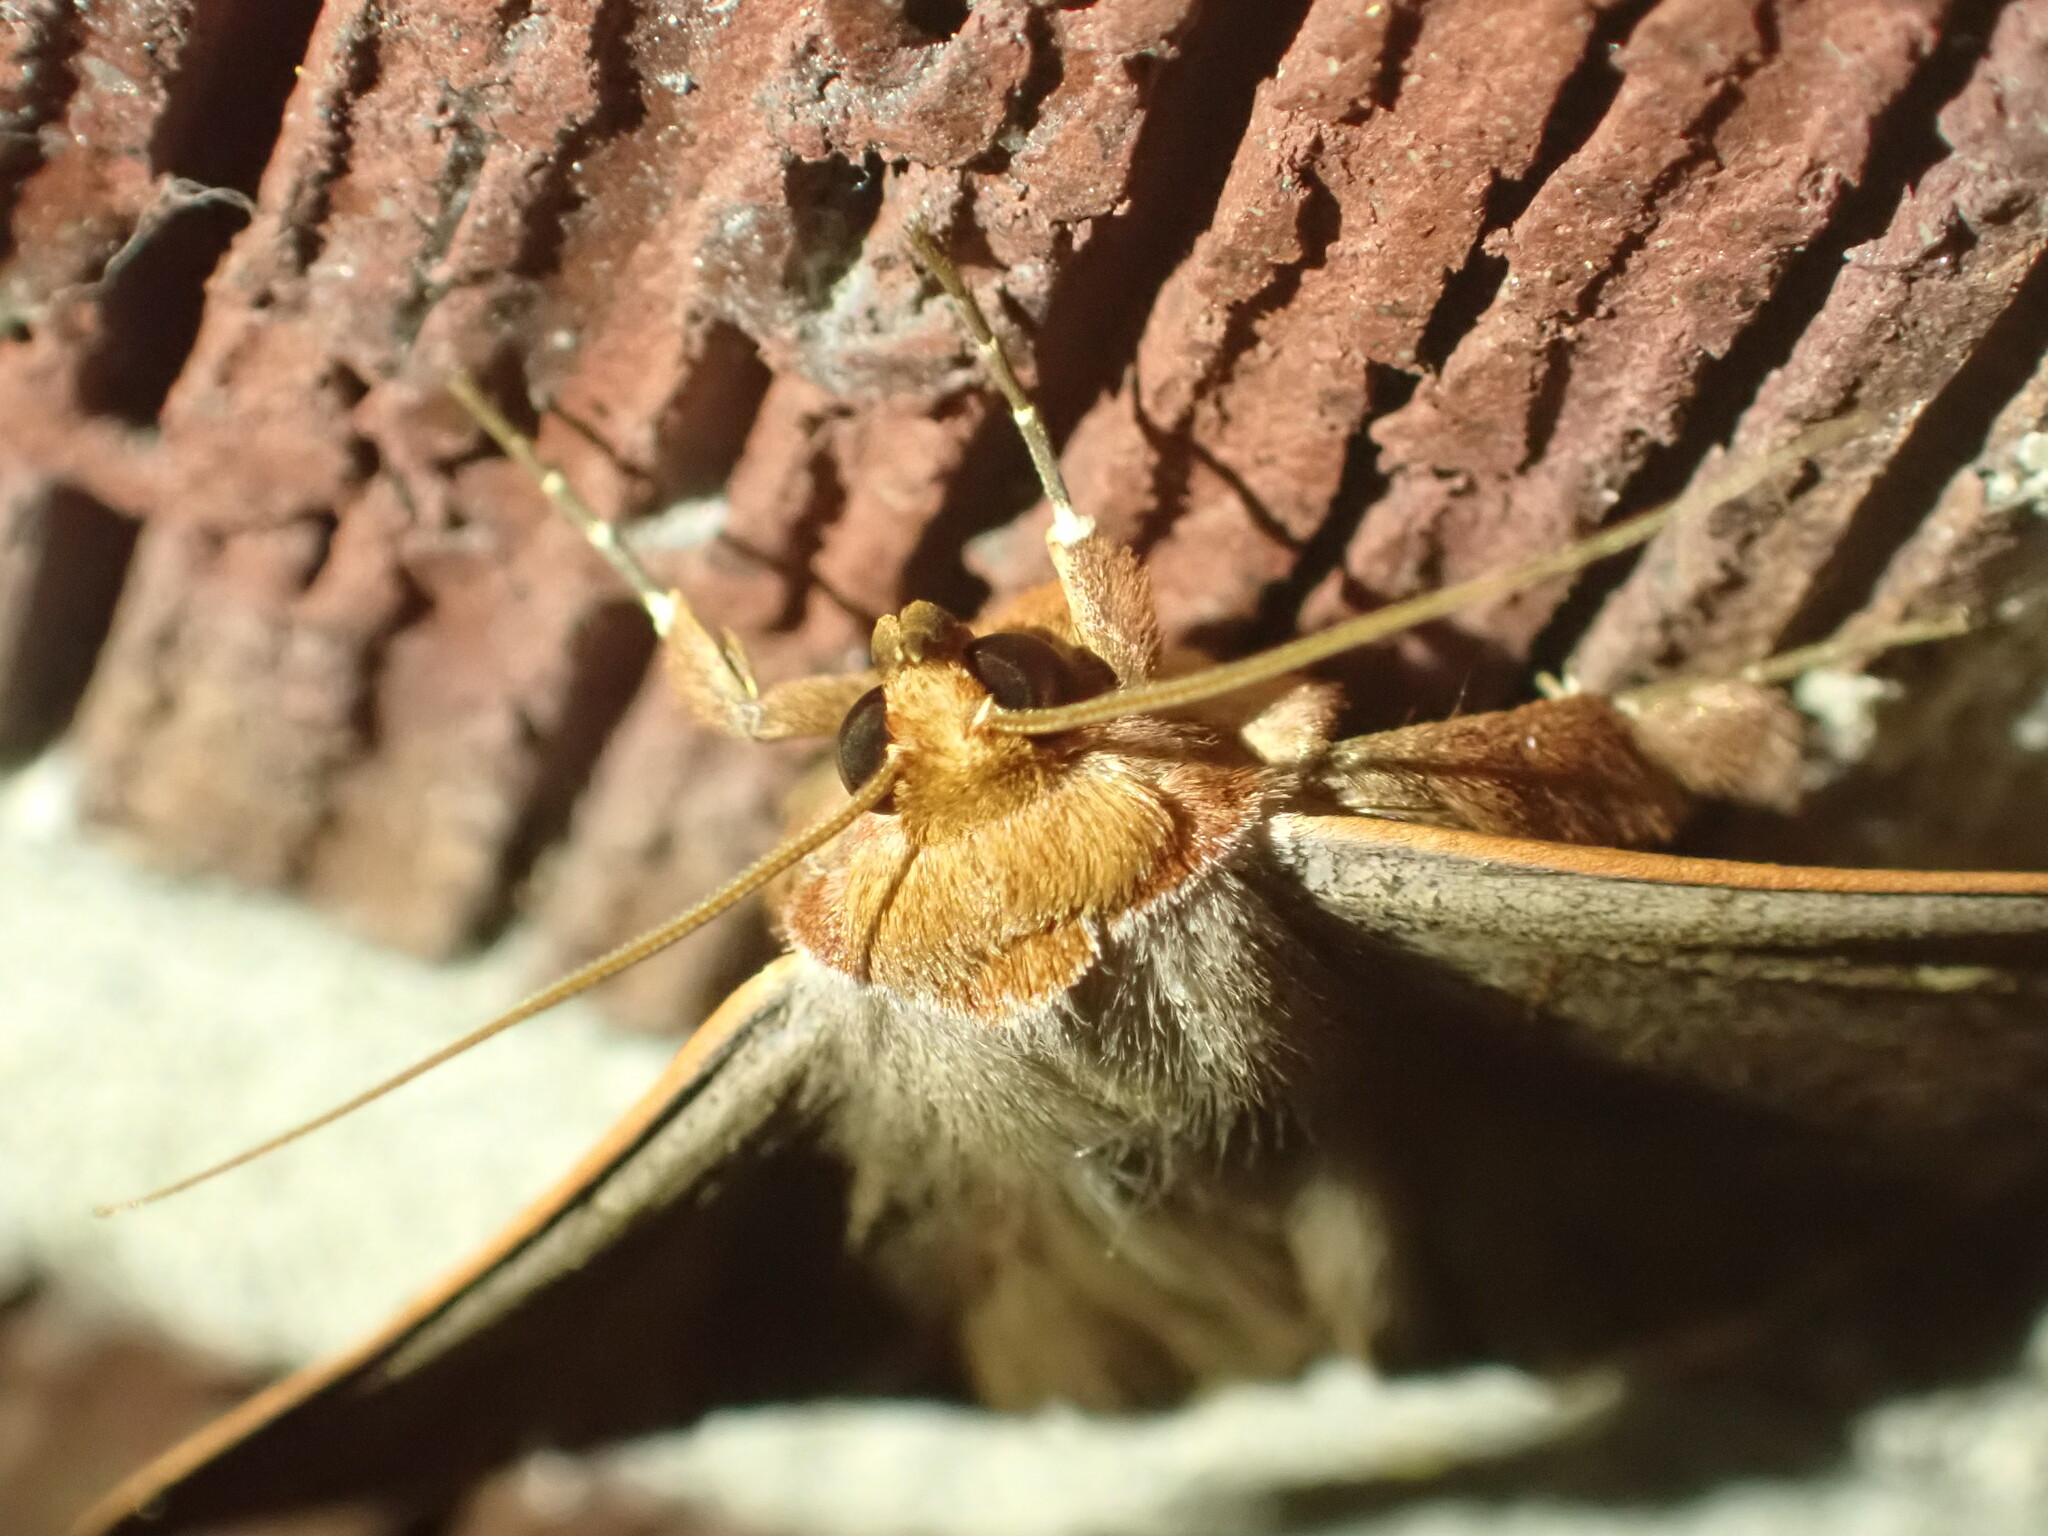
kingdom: Animalia
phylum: Arthropoda
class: Insecta
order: Lepidoptera
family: Erebidae
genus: Panopoda
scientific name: Panopoda rufimargo
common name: Red-lined panopoda moth
